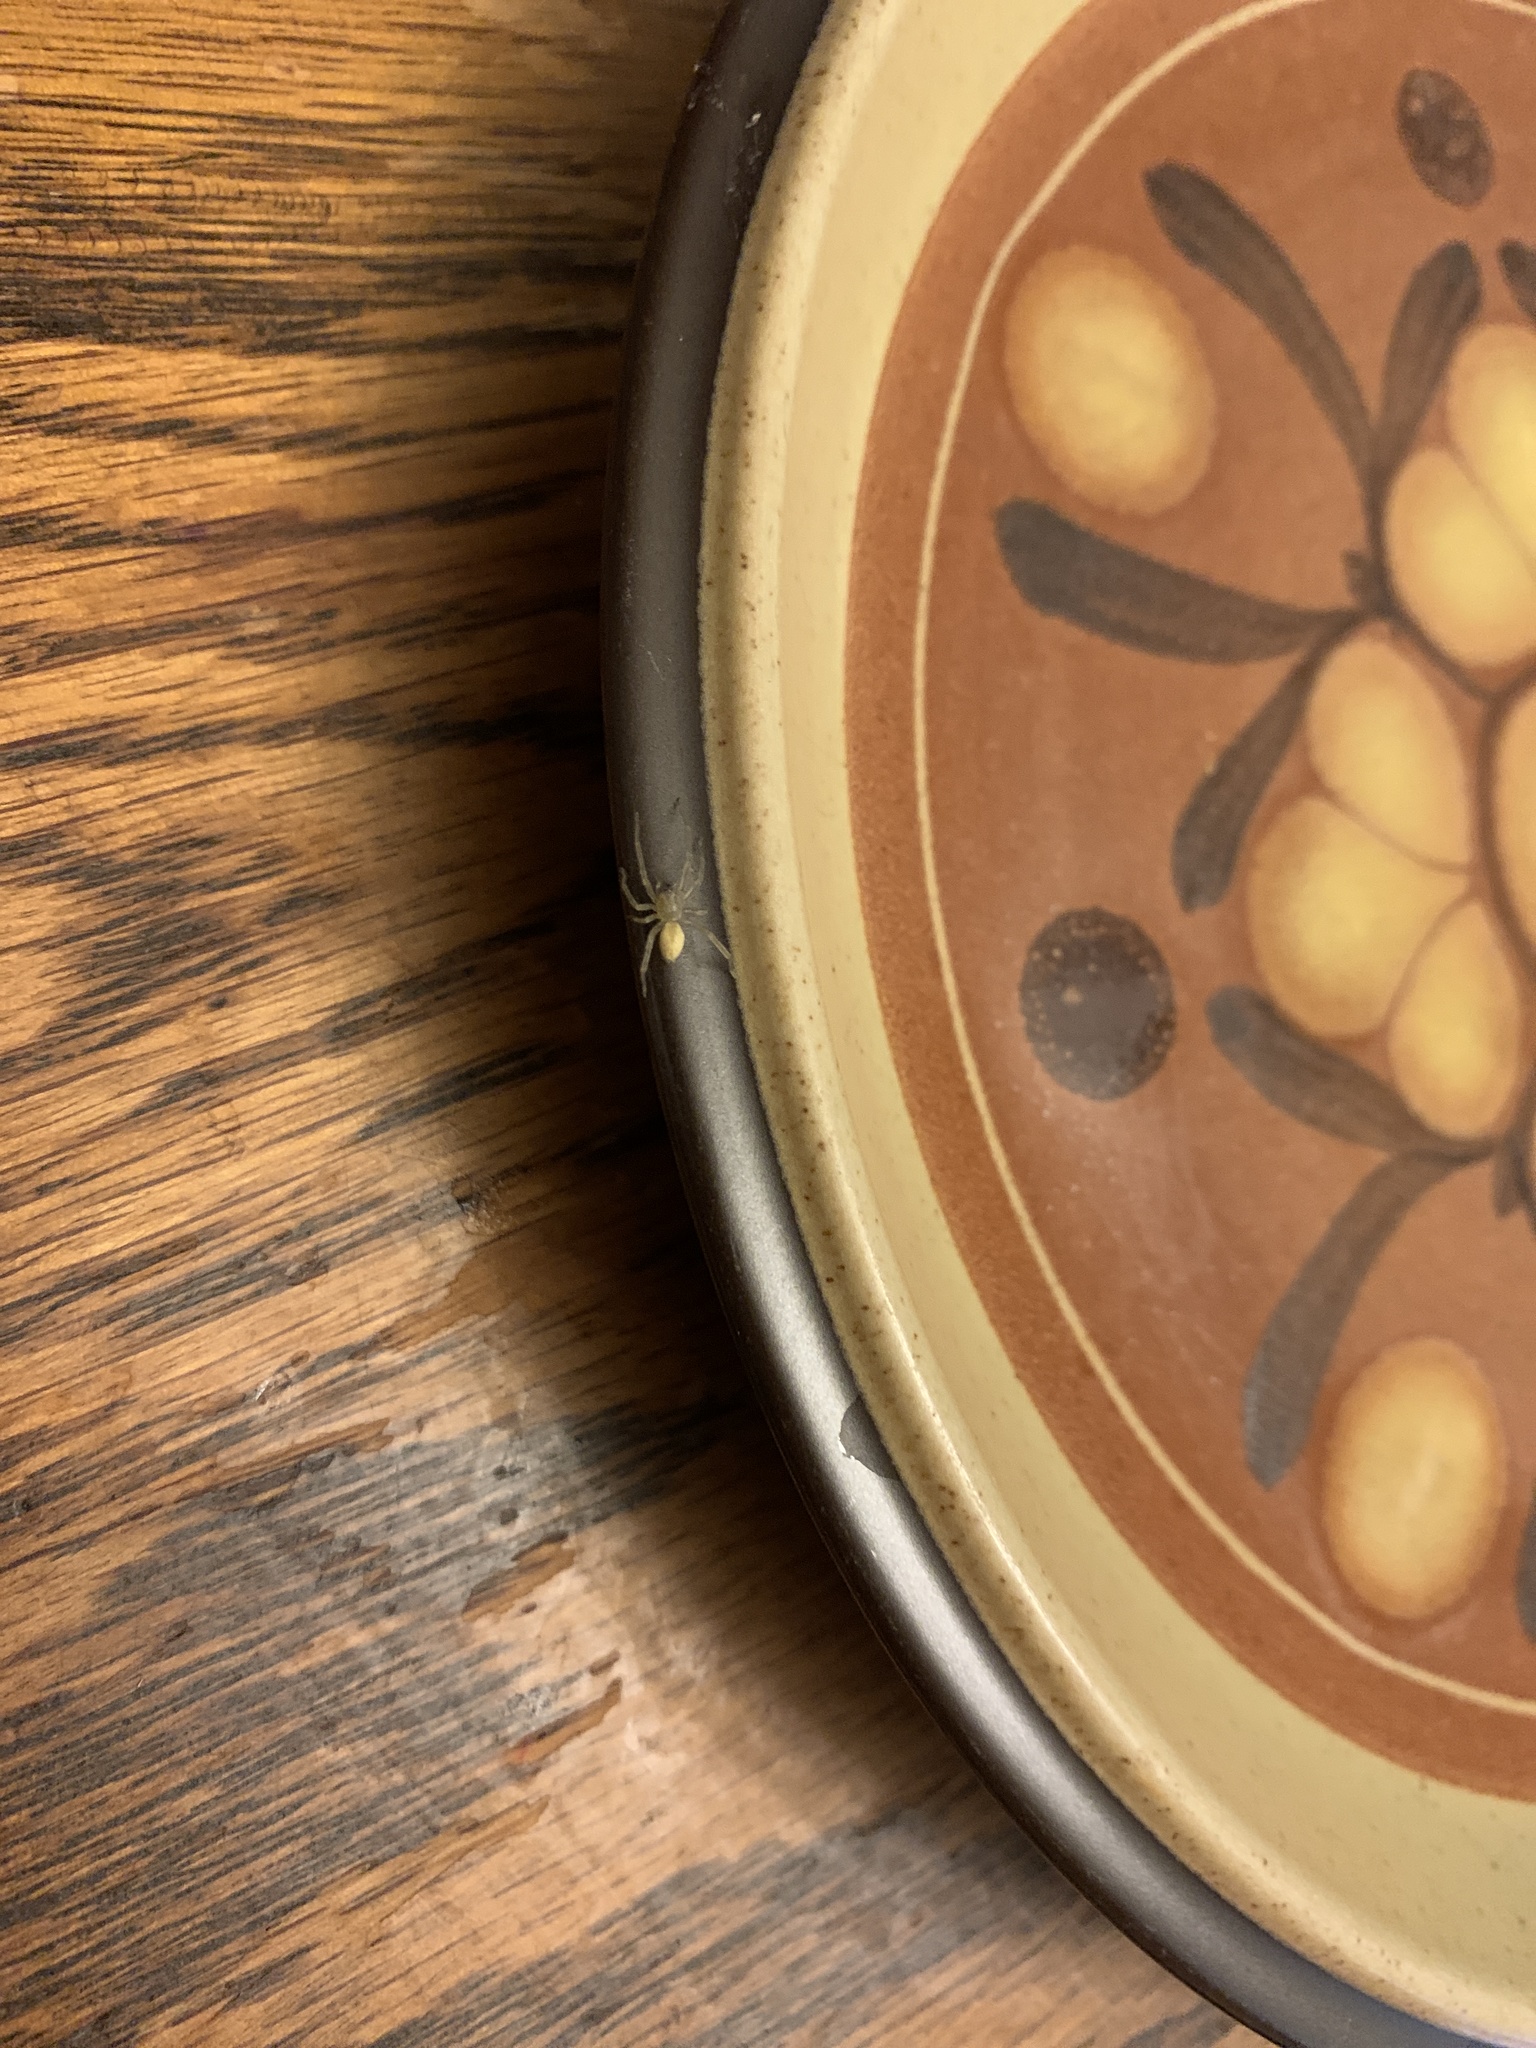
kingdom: Animalia
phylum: Arthropoda
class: Arachnida
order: Araneae
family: Cheiracanthiidae
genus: Cheiracanthium
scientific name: Cheiracanthium
